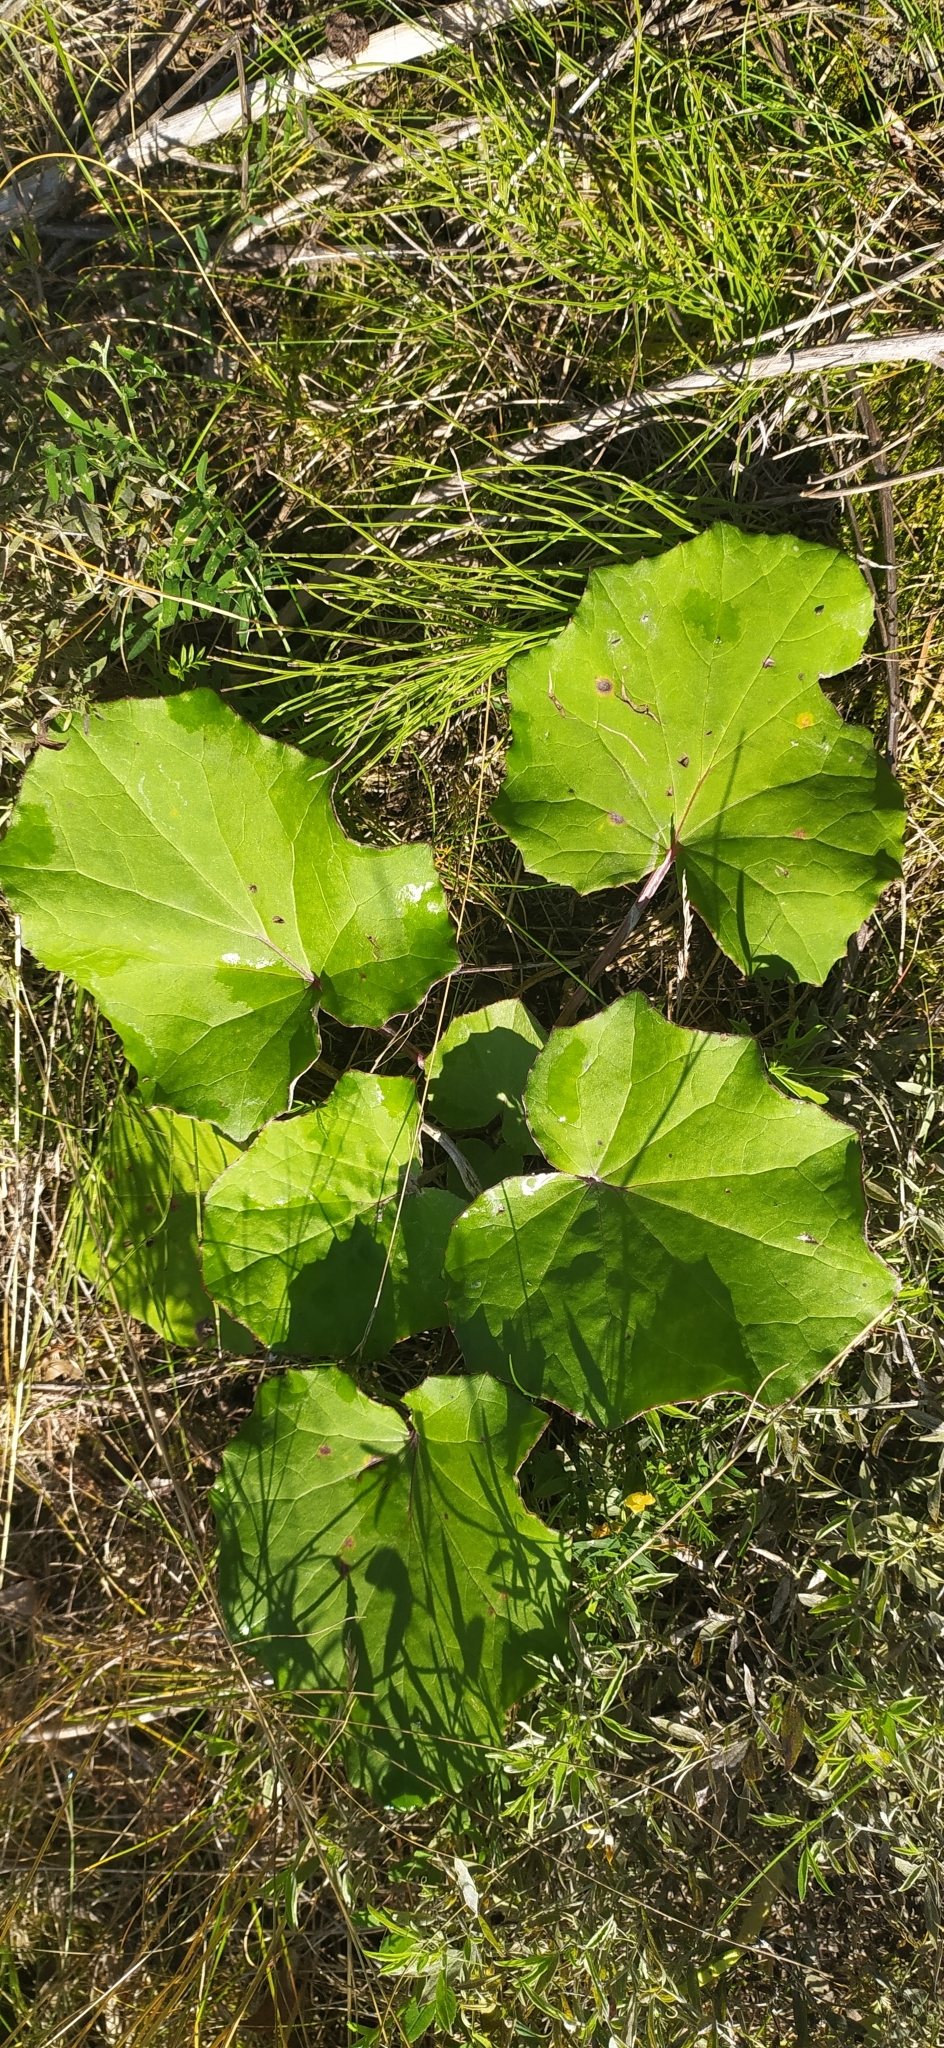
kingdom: Plantae
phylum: Tracheophyta
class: Magnoliopsida
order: Asterales
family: Asteraceae
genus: Tussilago
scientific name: Tussilago farfara
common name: Coltsfoot
